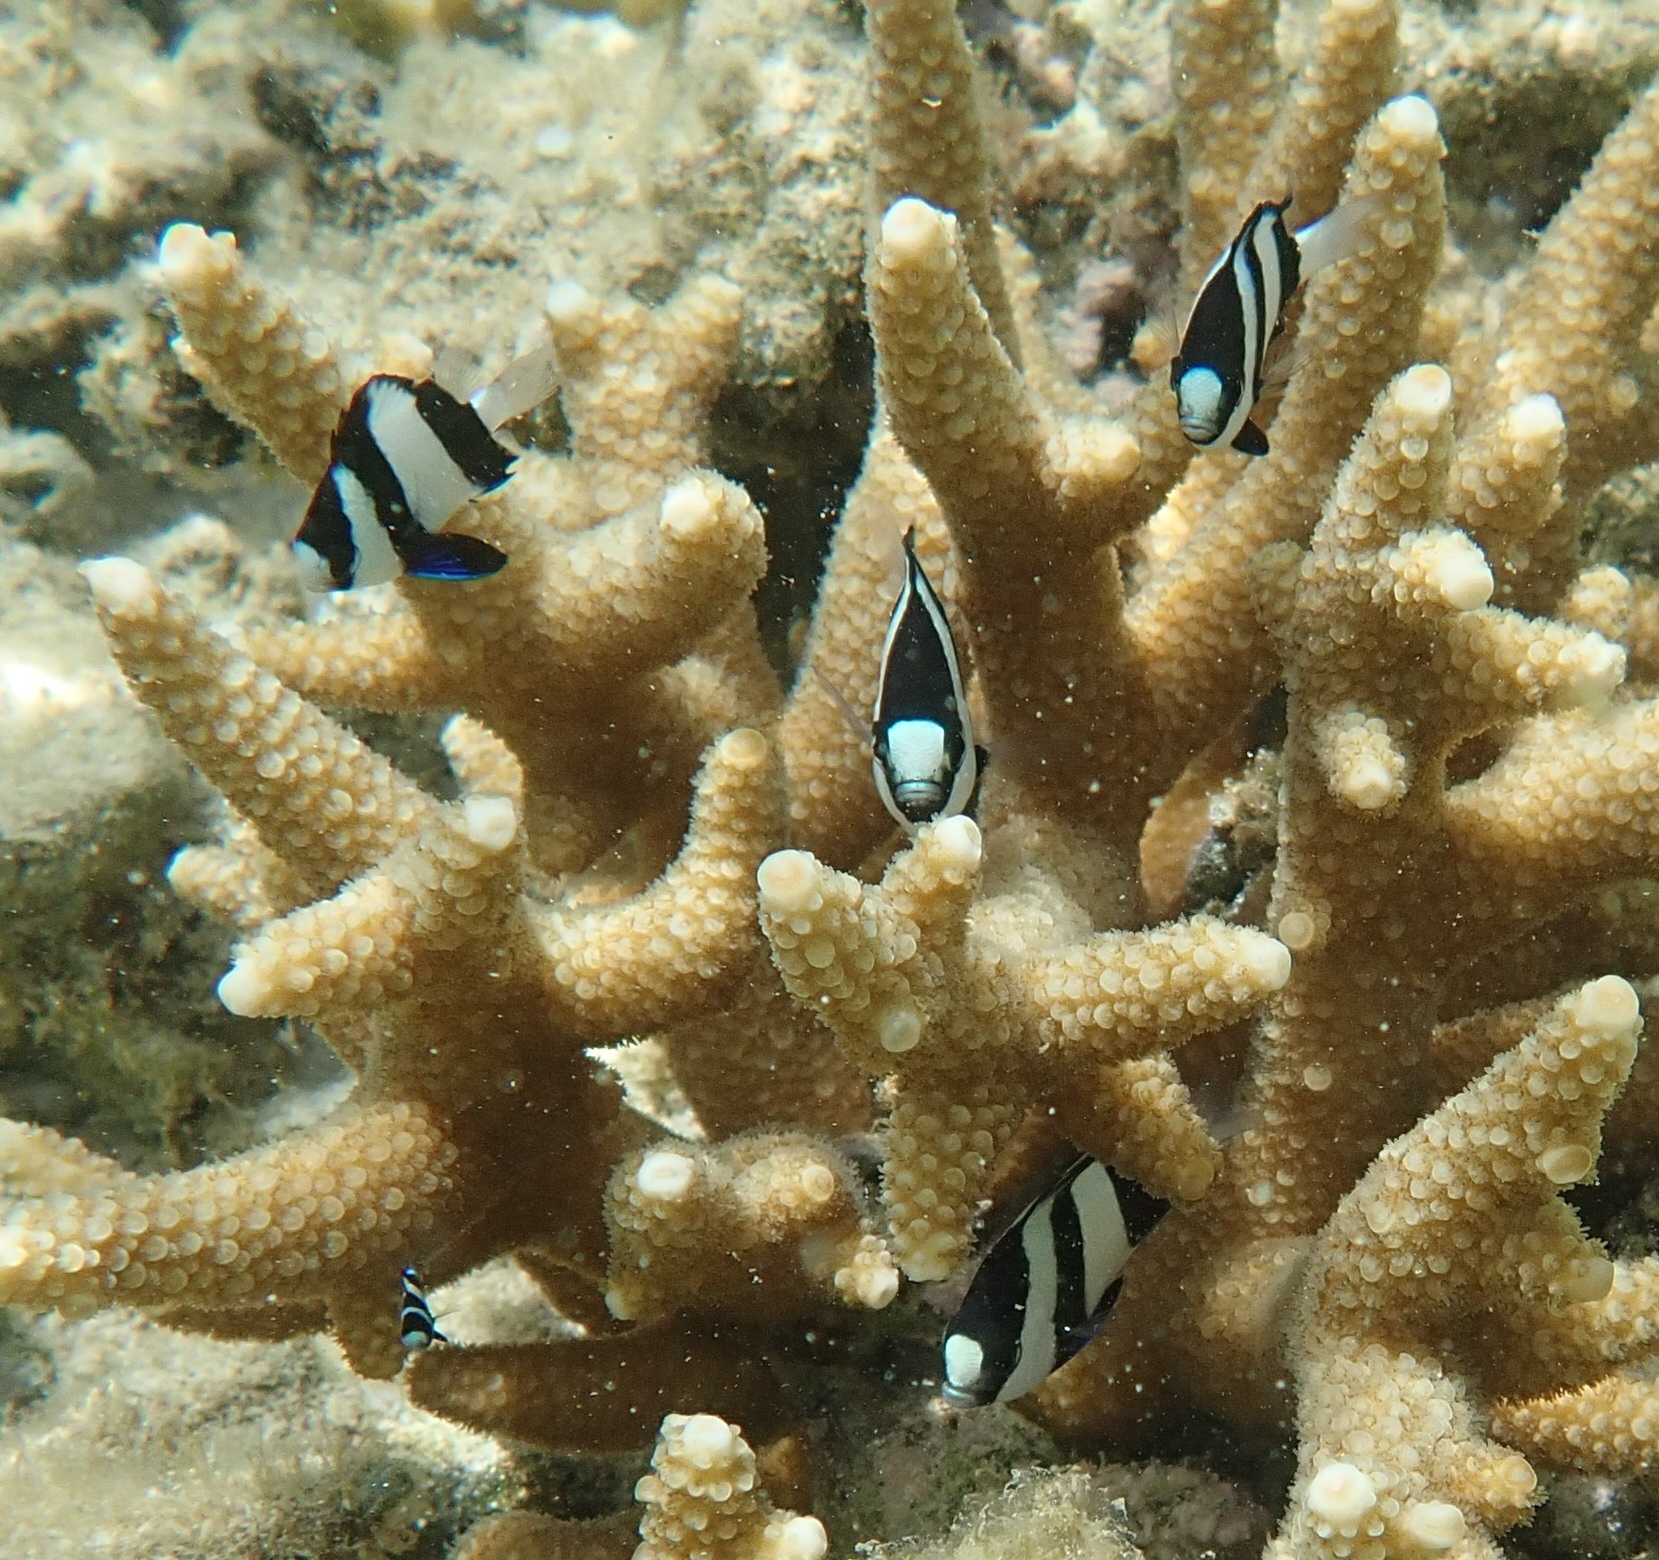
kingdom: Animalia
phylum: Chordata
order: Perciformes
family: Pomacentridae
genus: Dascyllus
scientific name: Dascyllus aruanus
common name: Humbug dascyllus
